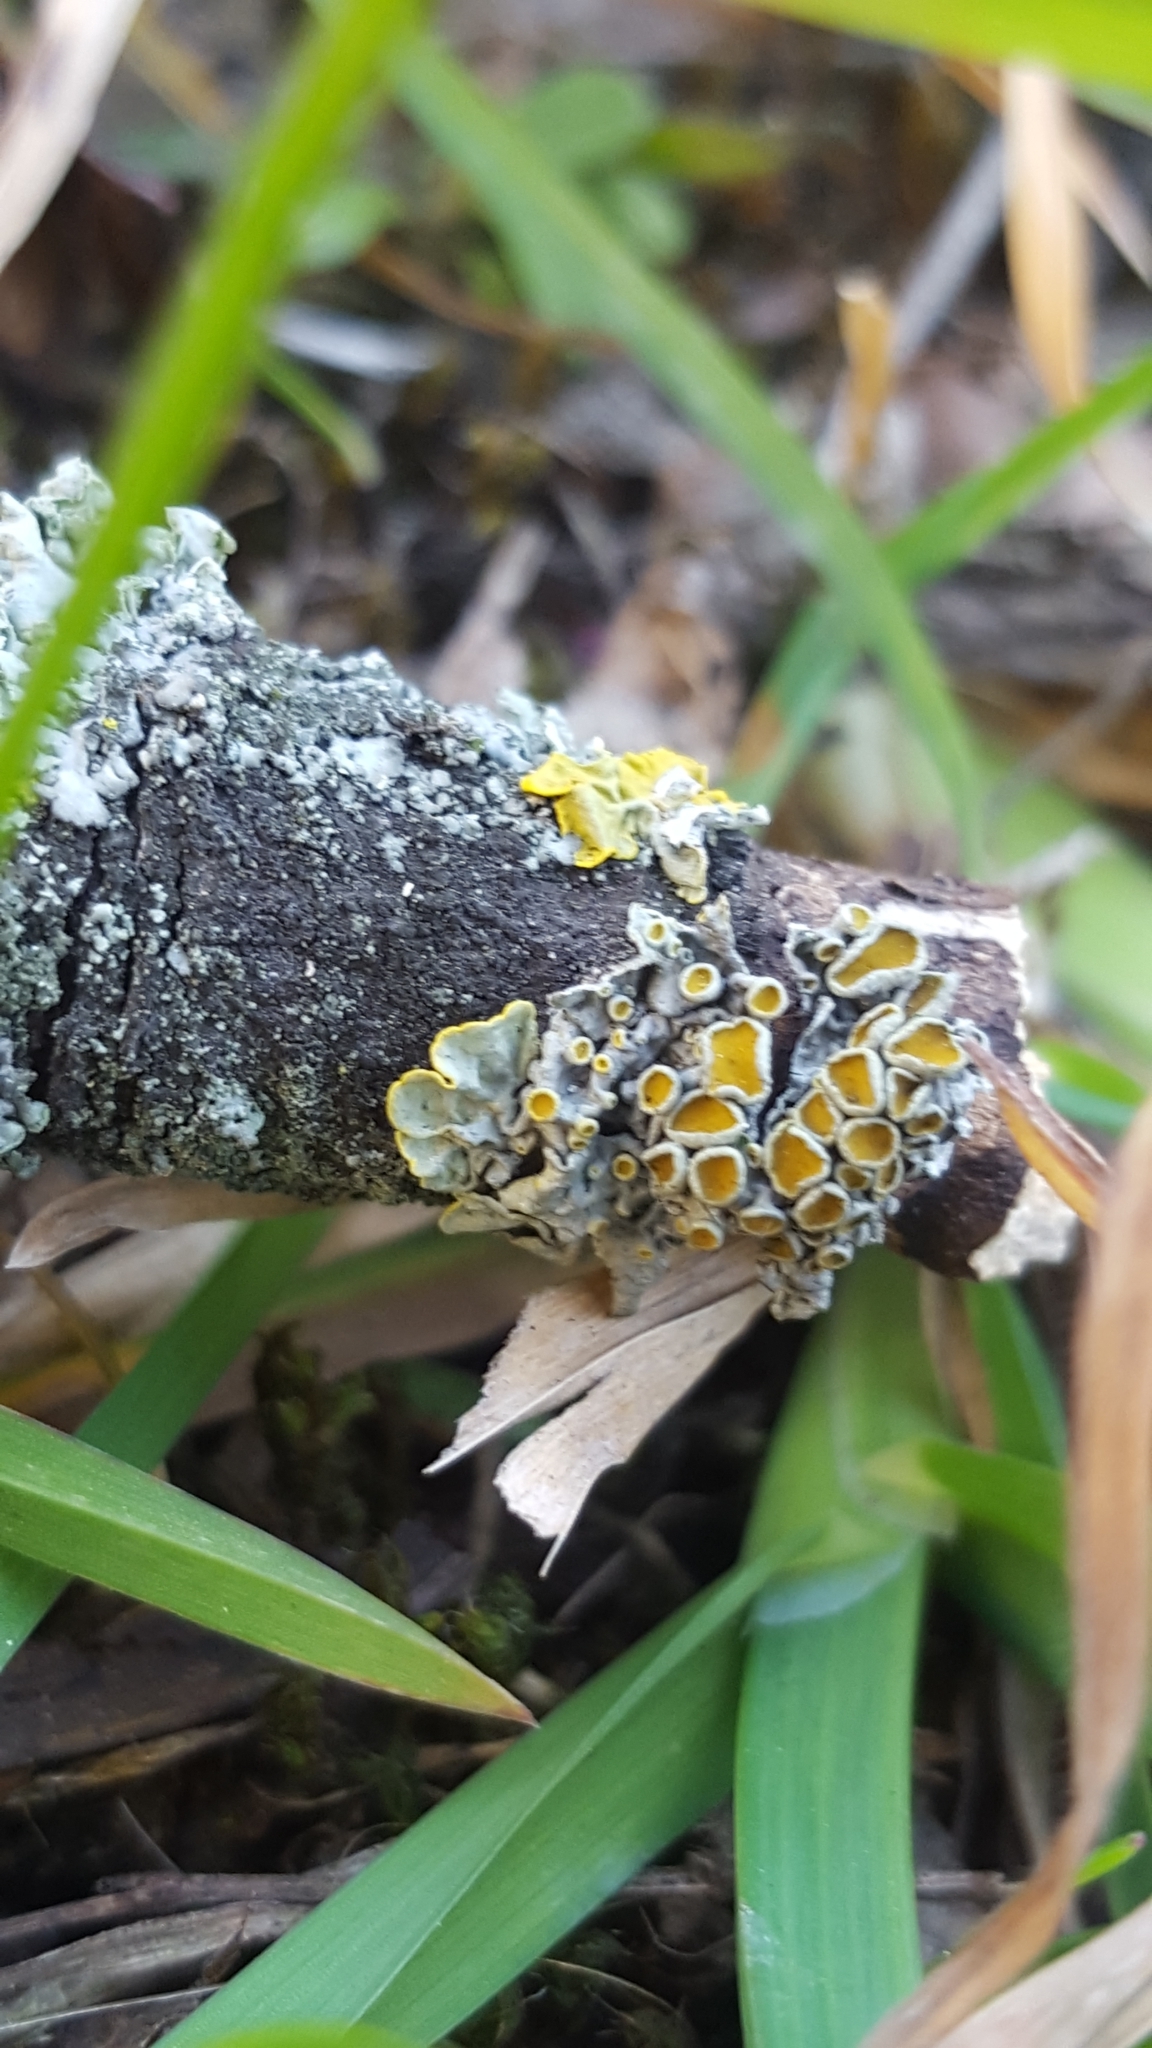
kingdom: Fungi
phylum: Ascomycota
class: Lecanoromycetes
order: Teloschistales
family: Teloschistaceae
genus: Xanthoria
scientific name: Xanthoria parietina
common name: Common orange lichen
